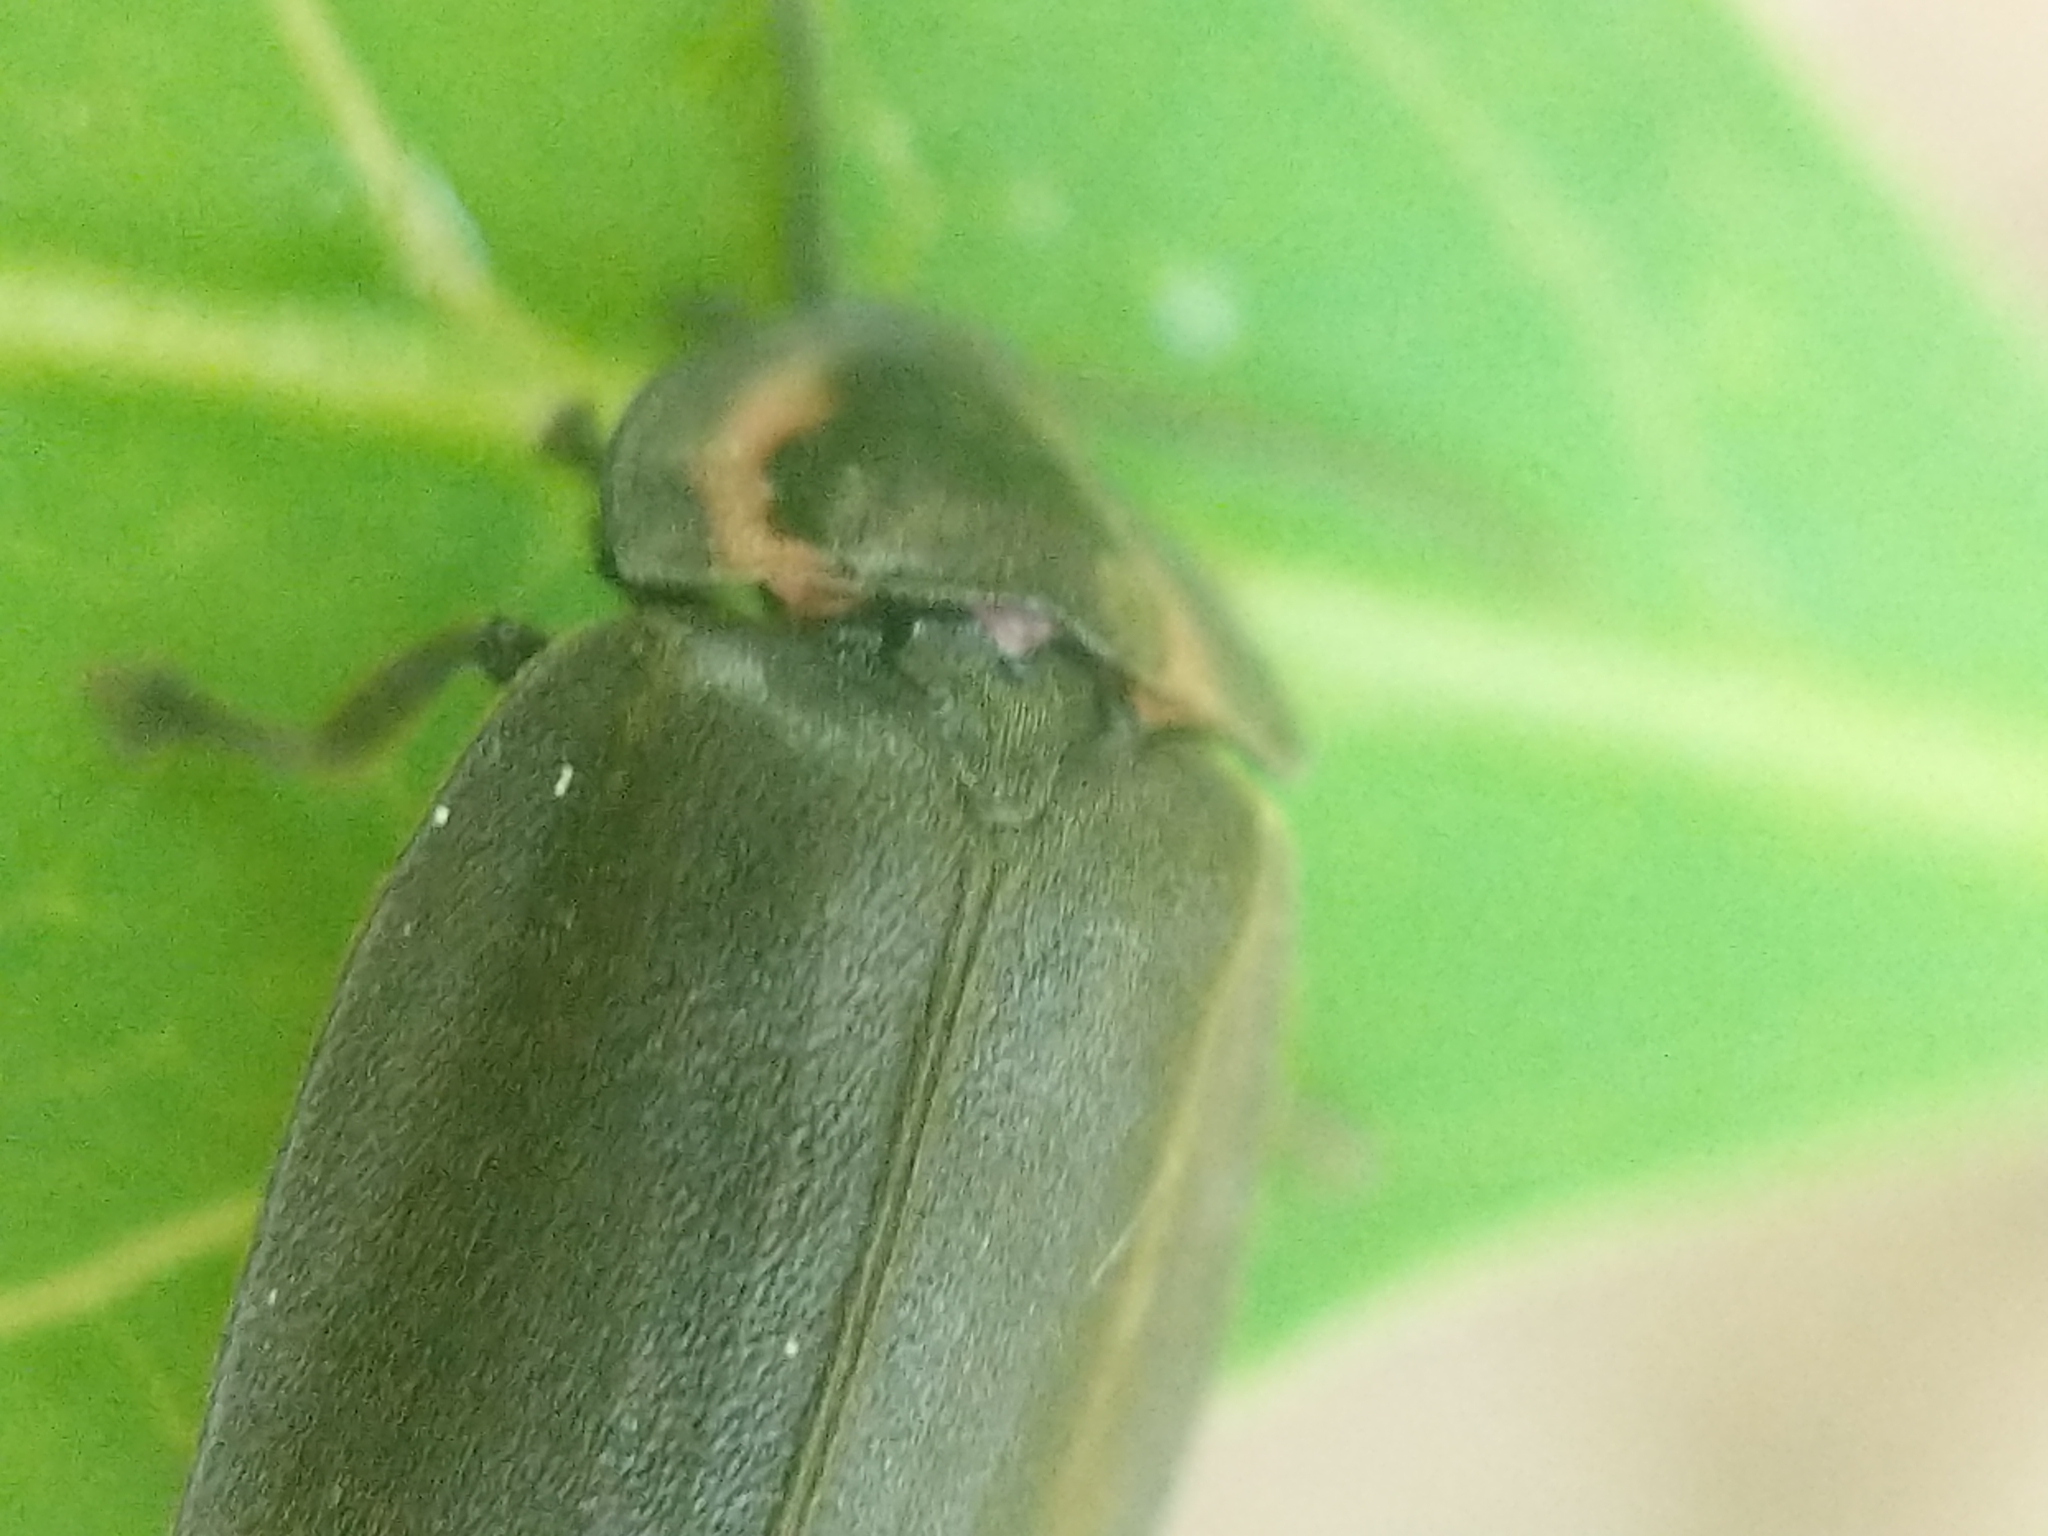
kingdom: Animalia
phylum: Arthropoda
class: Insecta
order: Coleoptera
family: Lampyridae
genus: Photinus
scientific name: Photinus corrusca
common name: Winter firefly
